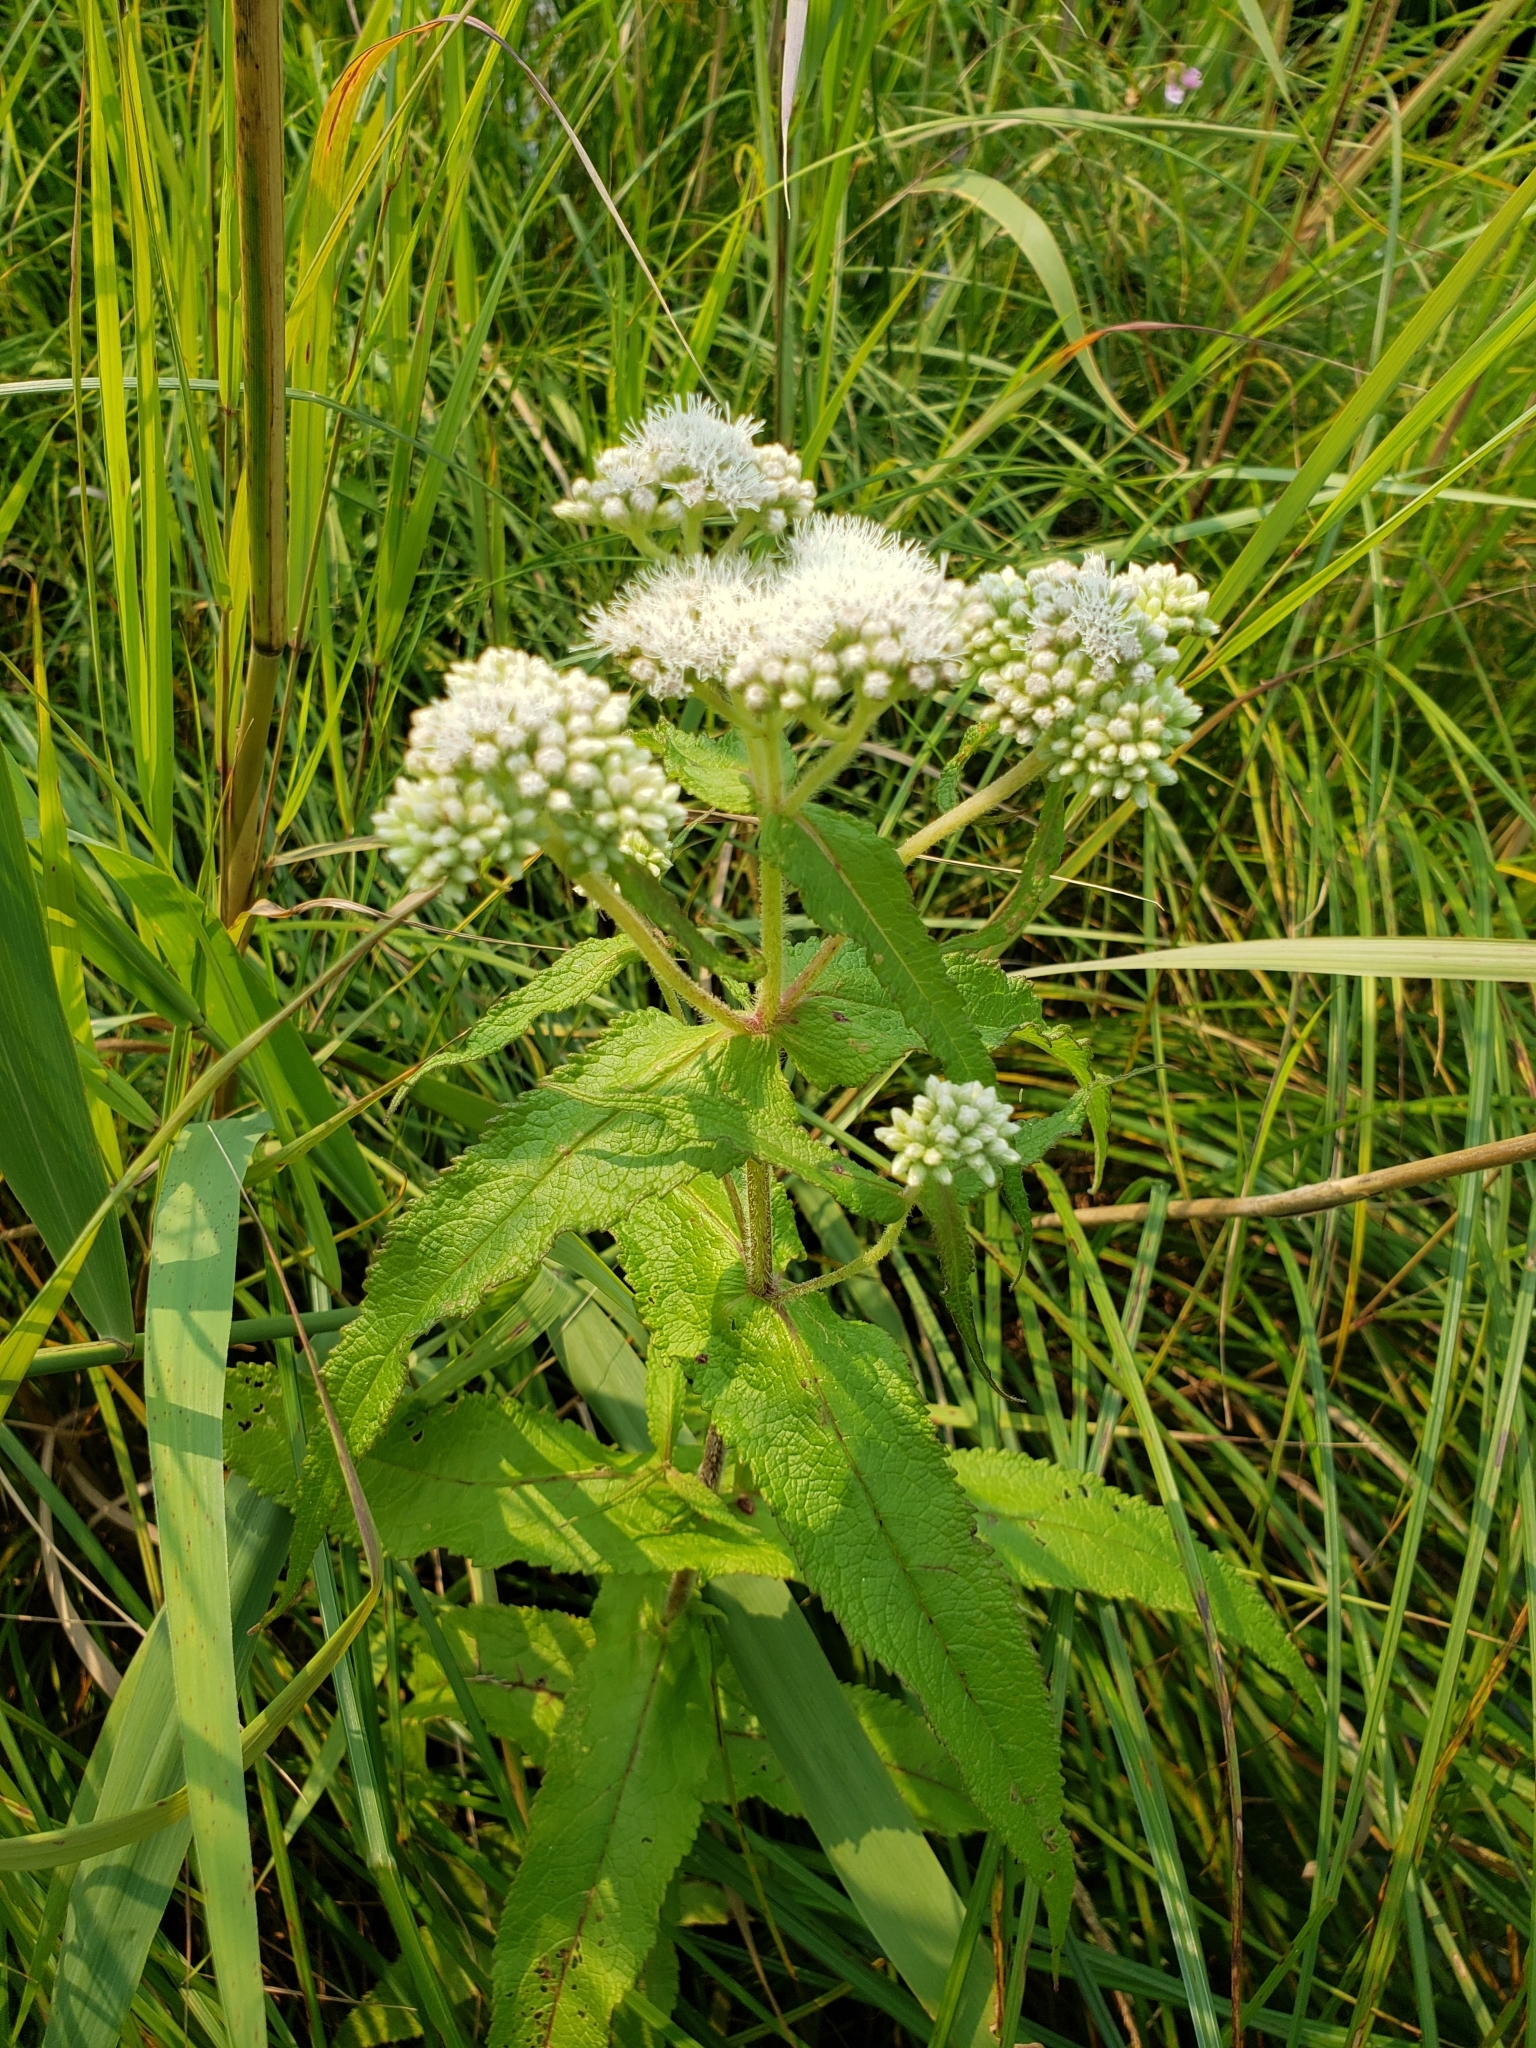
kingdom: Plantae
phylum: Tracheophyta
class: Magnoliopsida
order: Asterales
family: Asteraceae
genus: Eupatorium
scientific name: Eupatorium perfoliatum
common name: Boneset
